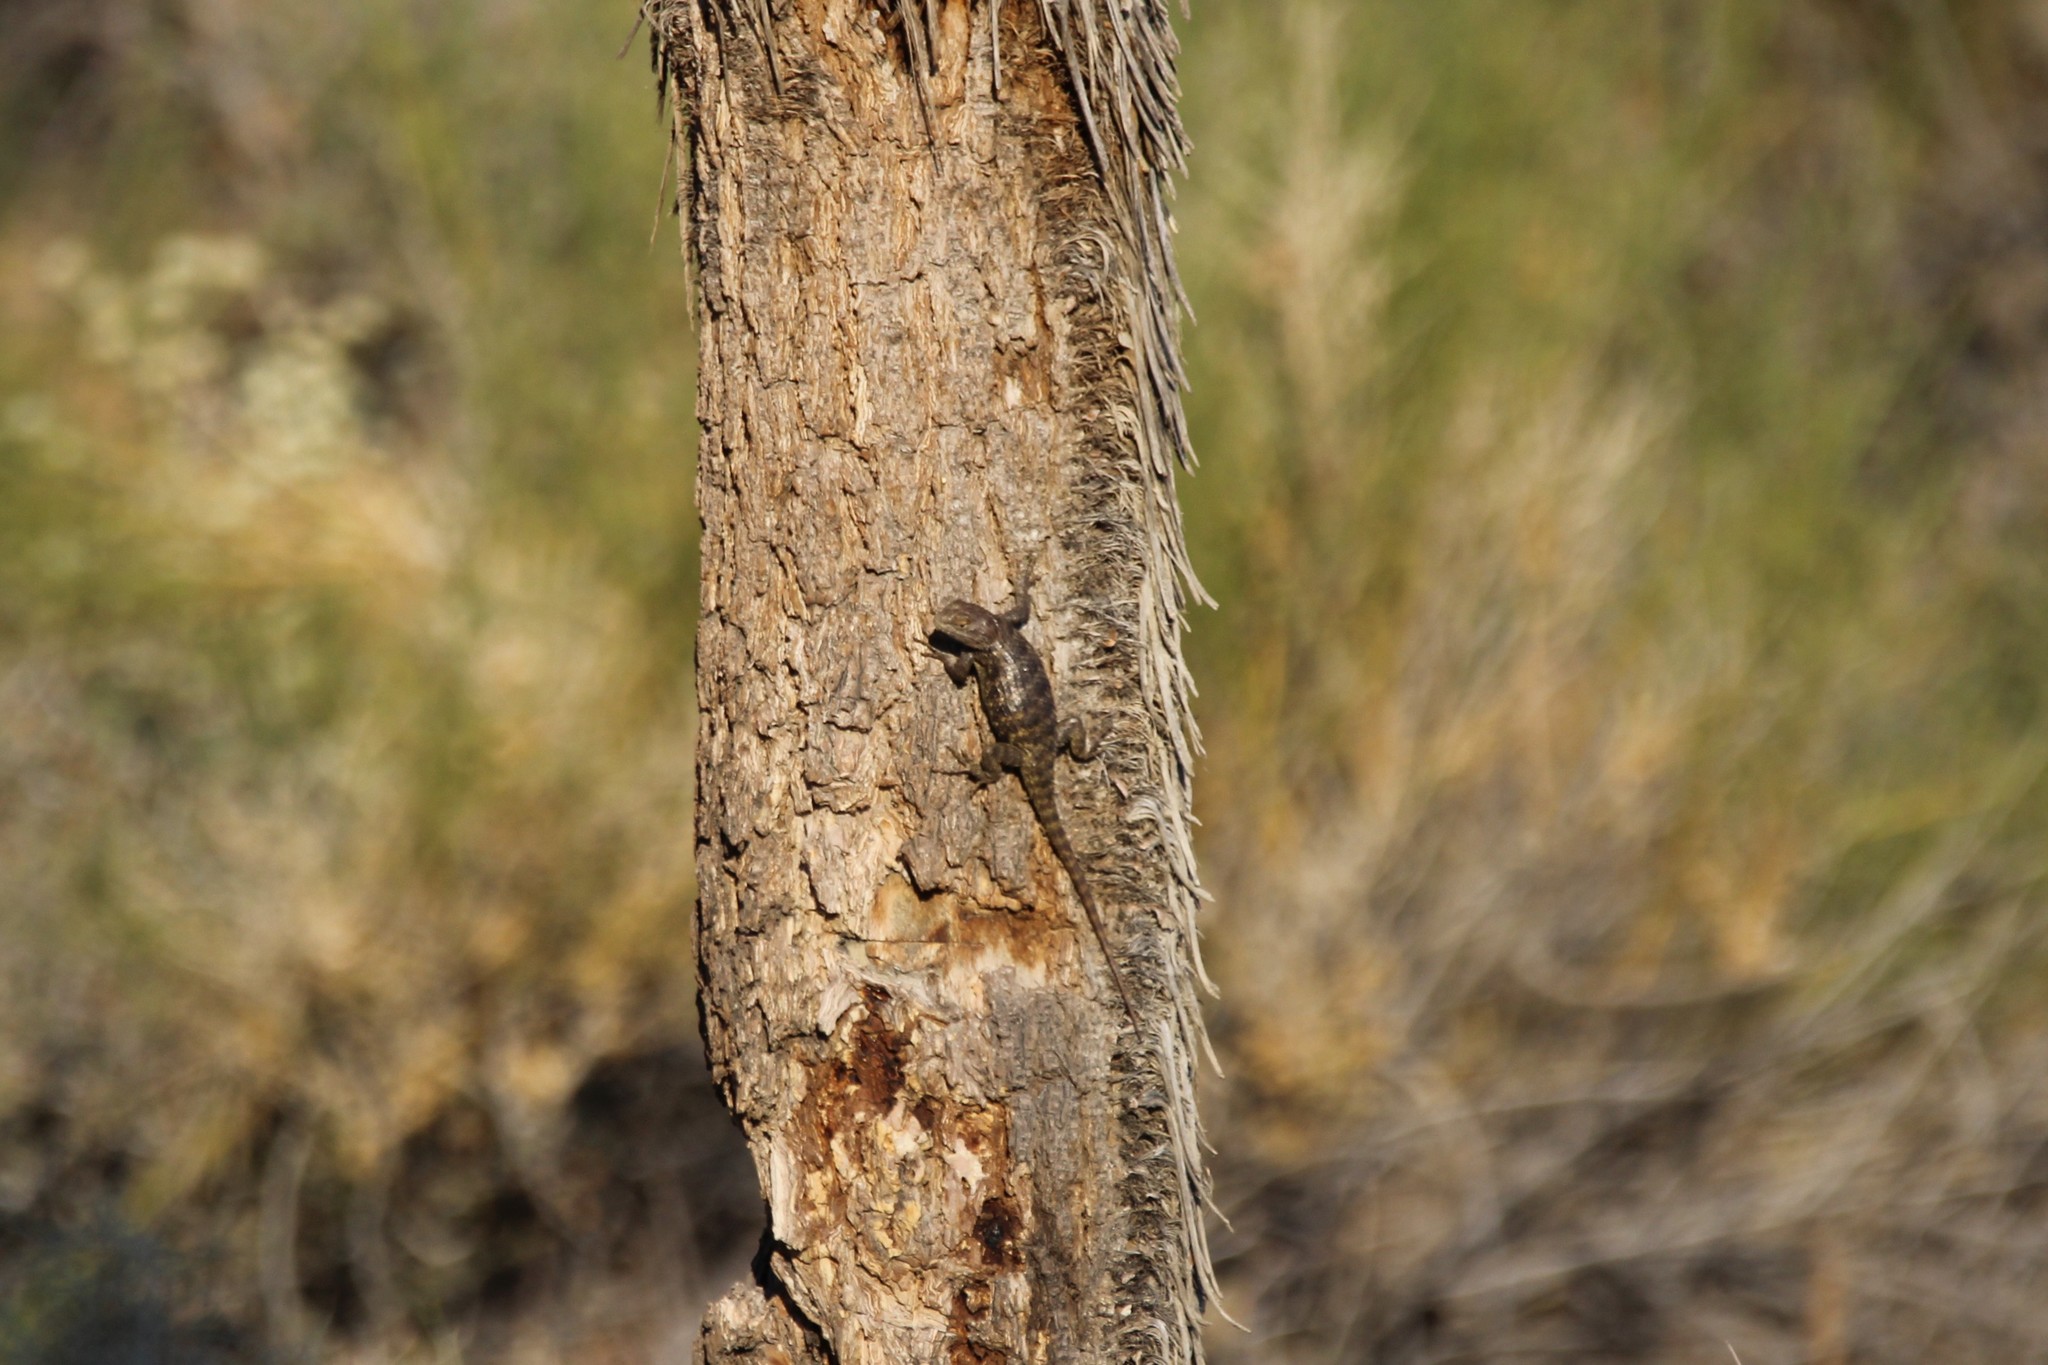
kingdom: Animalia
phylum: Chordata
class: Squamata
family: Phrynosomatidae
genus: Sceloporus
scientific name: Sceloporus magister
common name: Desert spiny lizard
